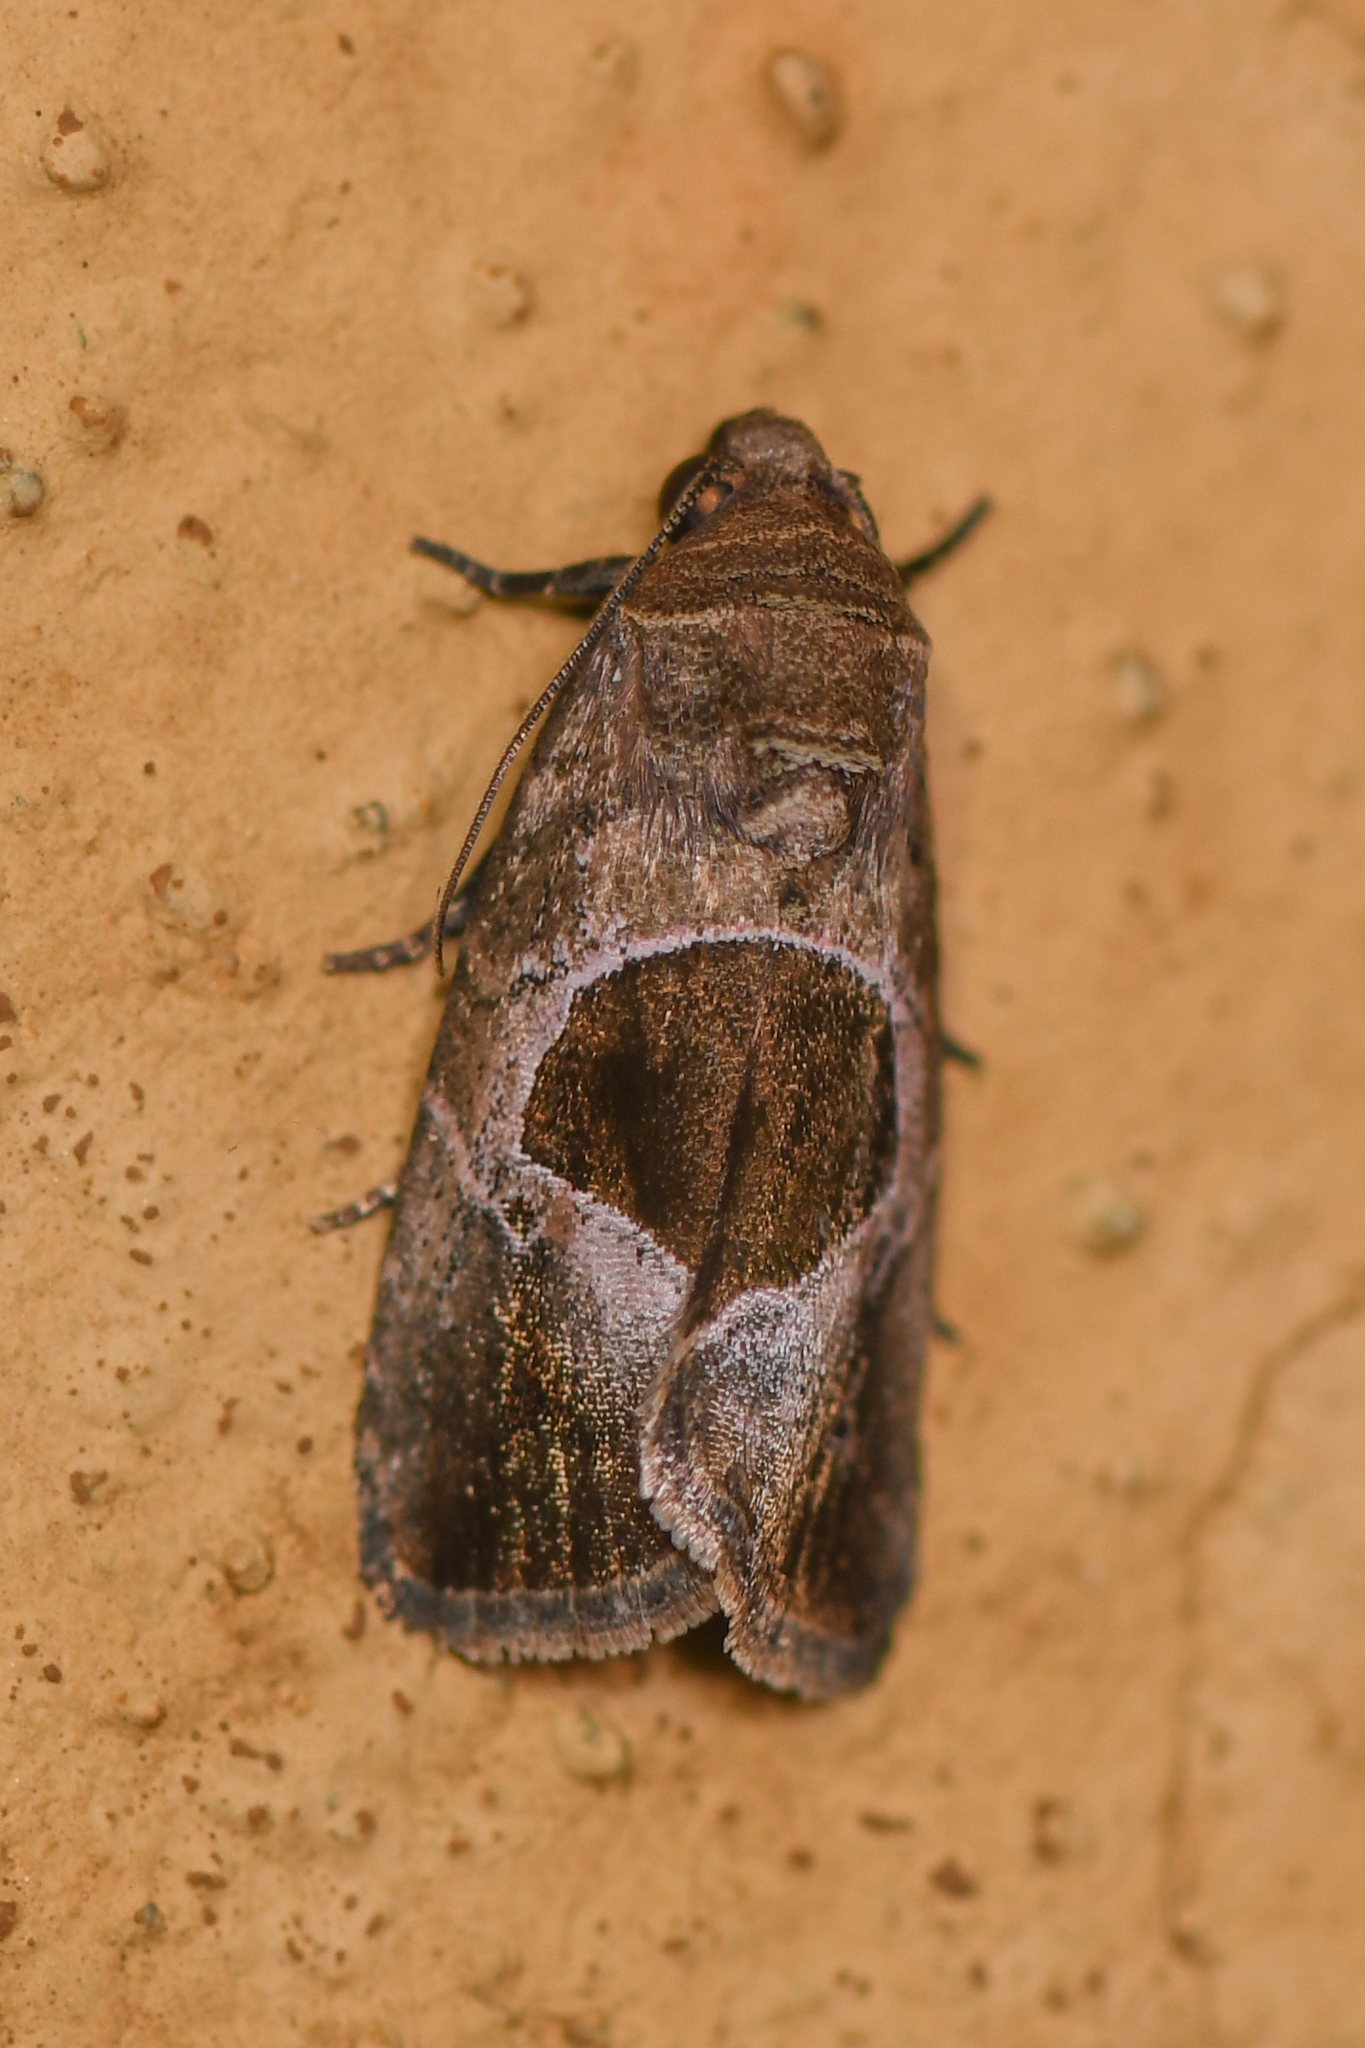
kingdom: Animalia
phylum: Arthropoda
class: Insecta
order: Lepidoptera
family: Noctuidae
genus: Elaphria
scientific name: Elaphria deltoides
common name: Cutworm moth
